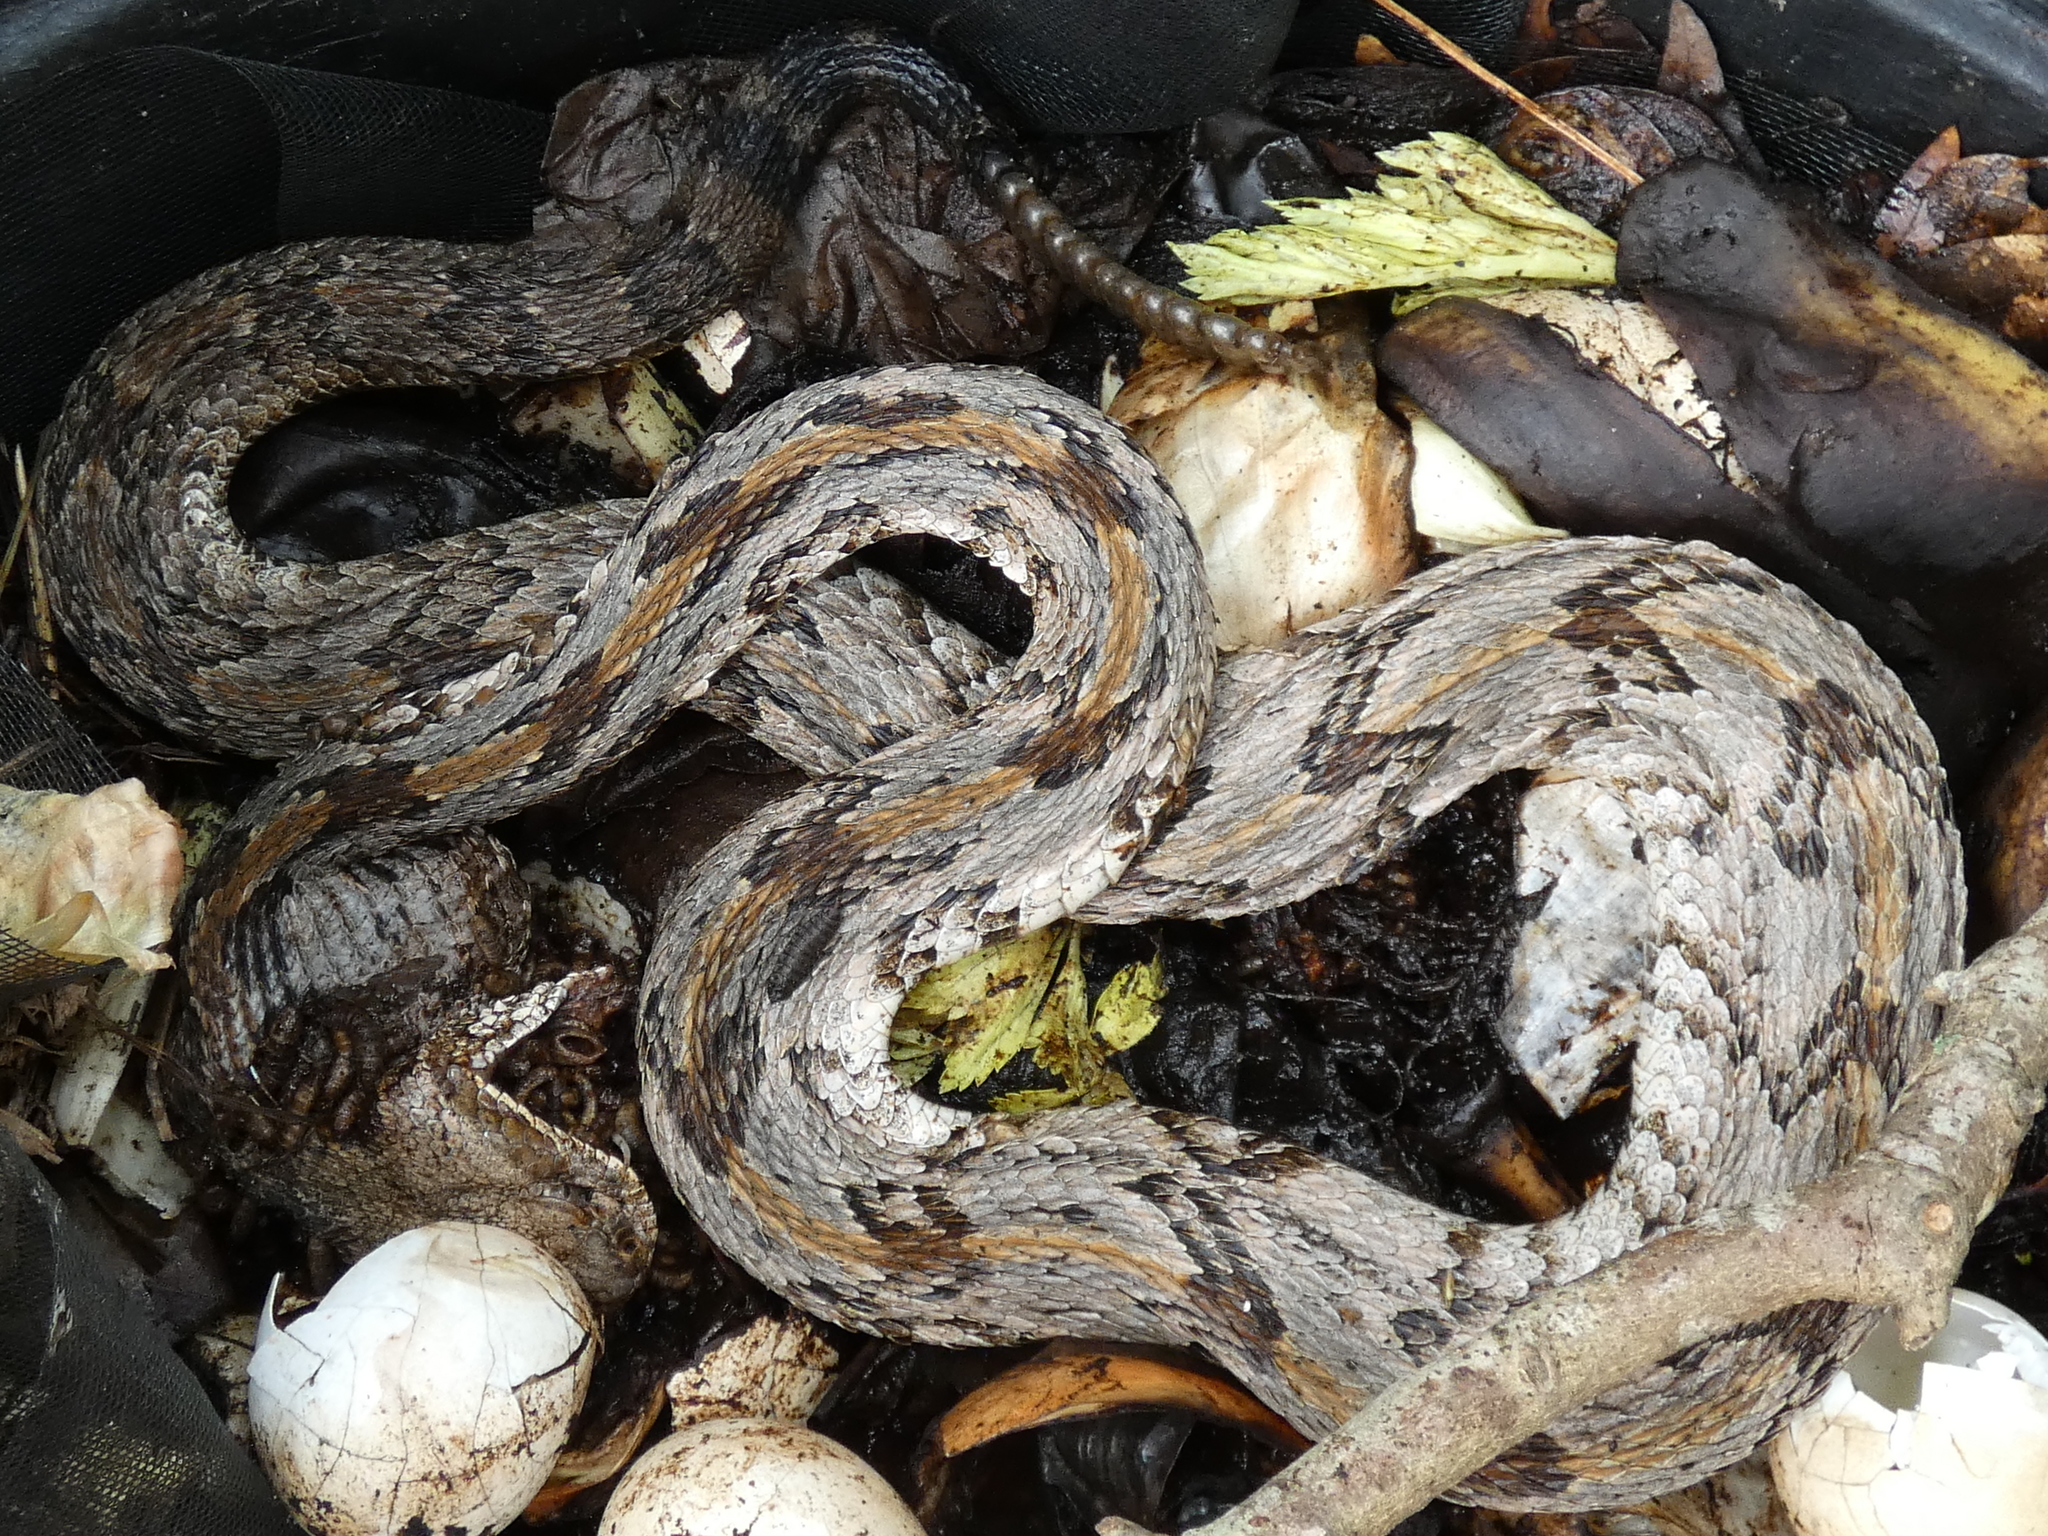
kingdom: Animalia
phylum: Chordata
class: Squamata
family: Viperidae
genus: Crotalus
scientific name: Crotalus horridus
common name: Timber rattlesnake
